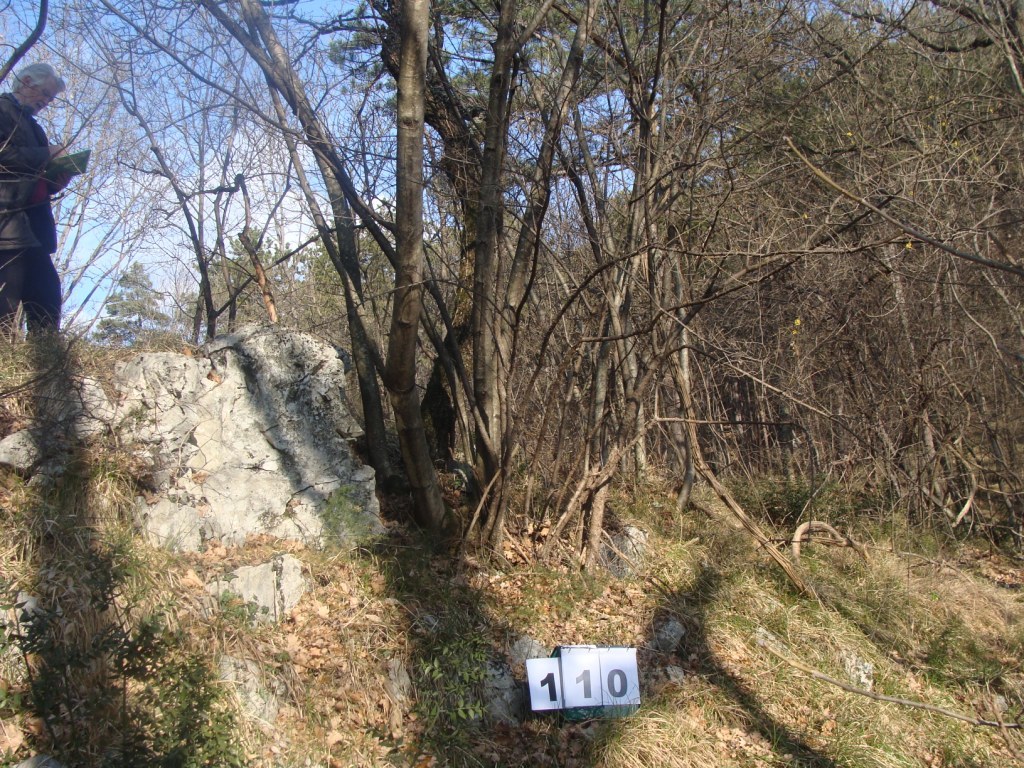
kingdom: Plantae
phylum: Tracheophyta
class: Magnoliopsida
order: Cornales
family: Cornaceae
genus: Cornus
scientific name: Cornus mas
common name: Cornelian-cherry
